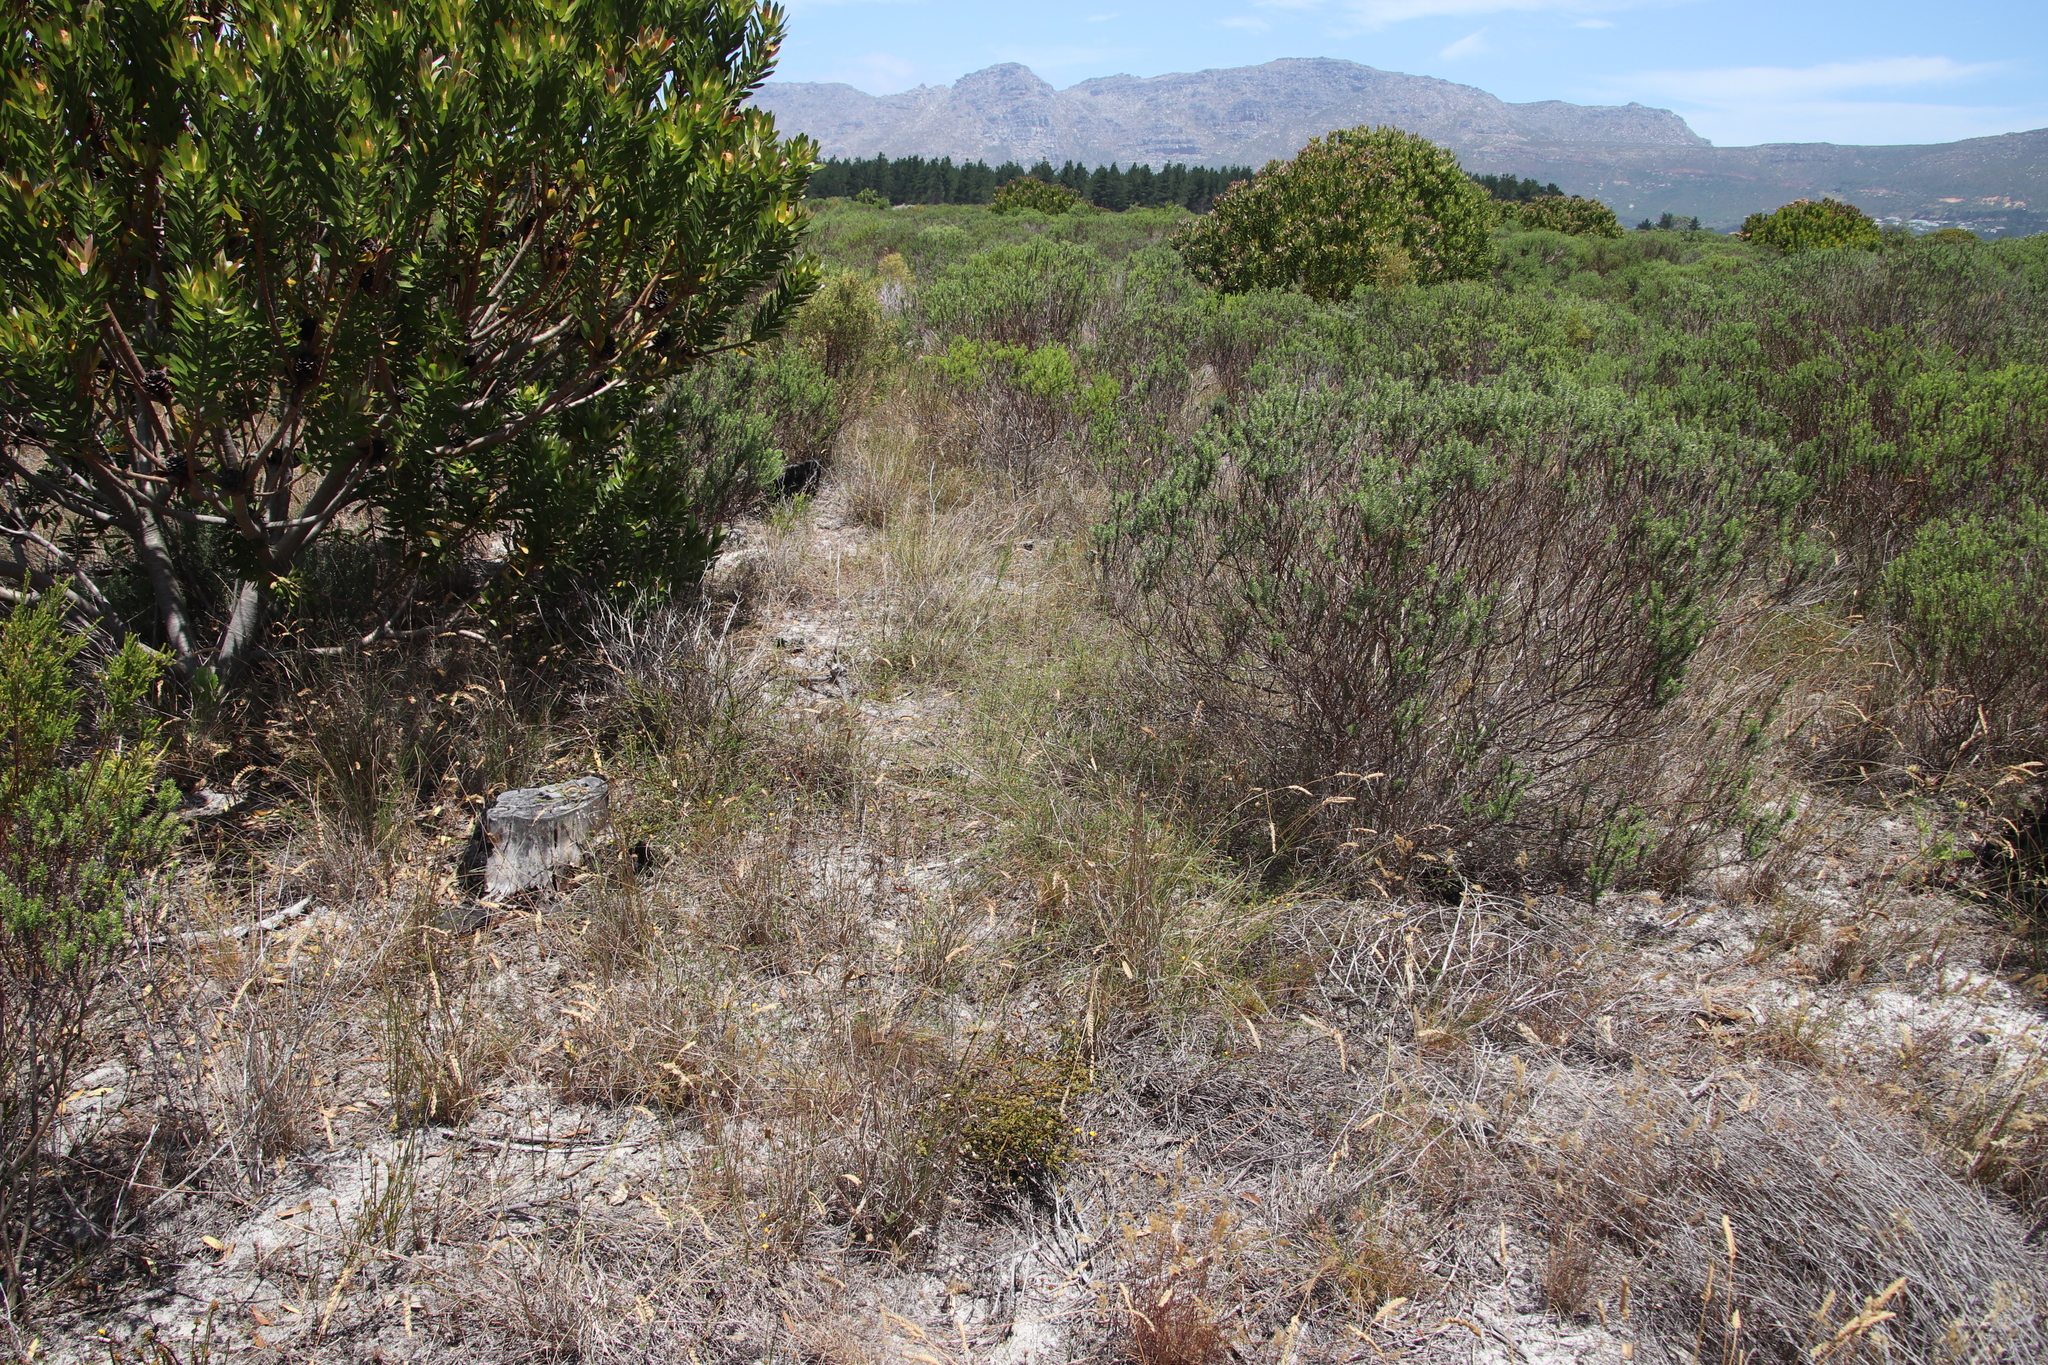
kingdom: Plantae
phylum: Tracheophyta
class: Magnoliopsida
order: Fabales
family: Fabaceae
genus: Aspalathus
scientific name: Aspalathus retroflexa
